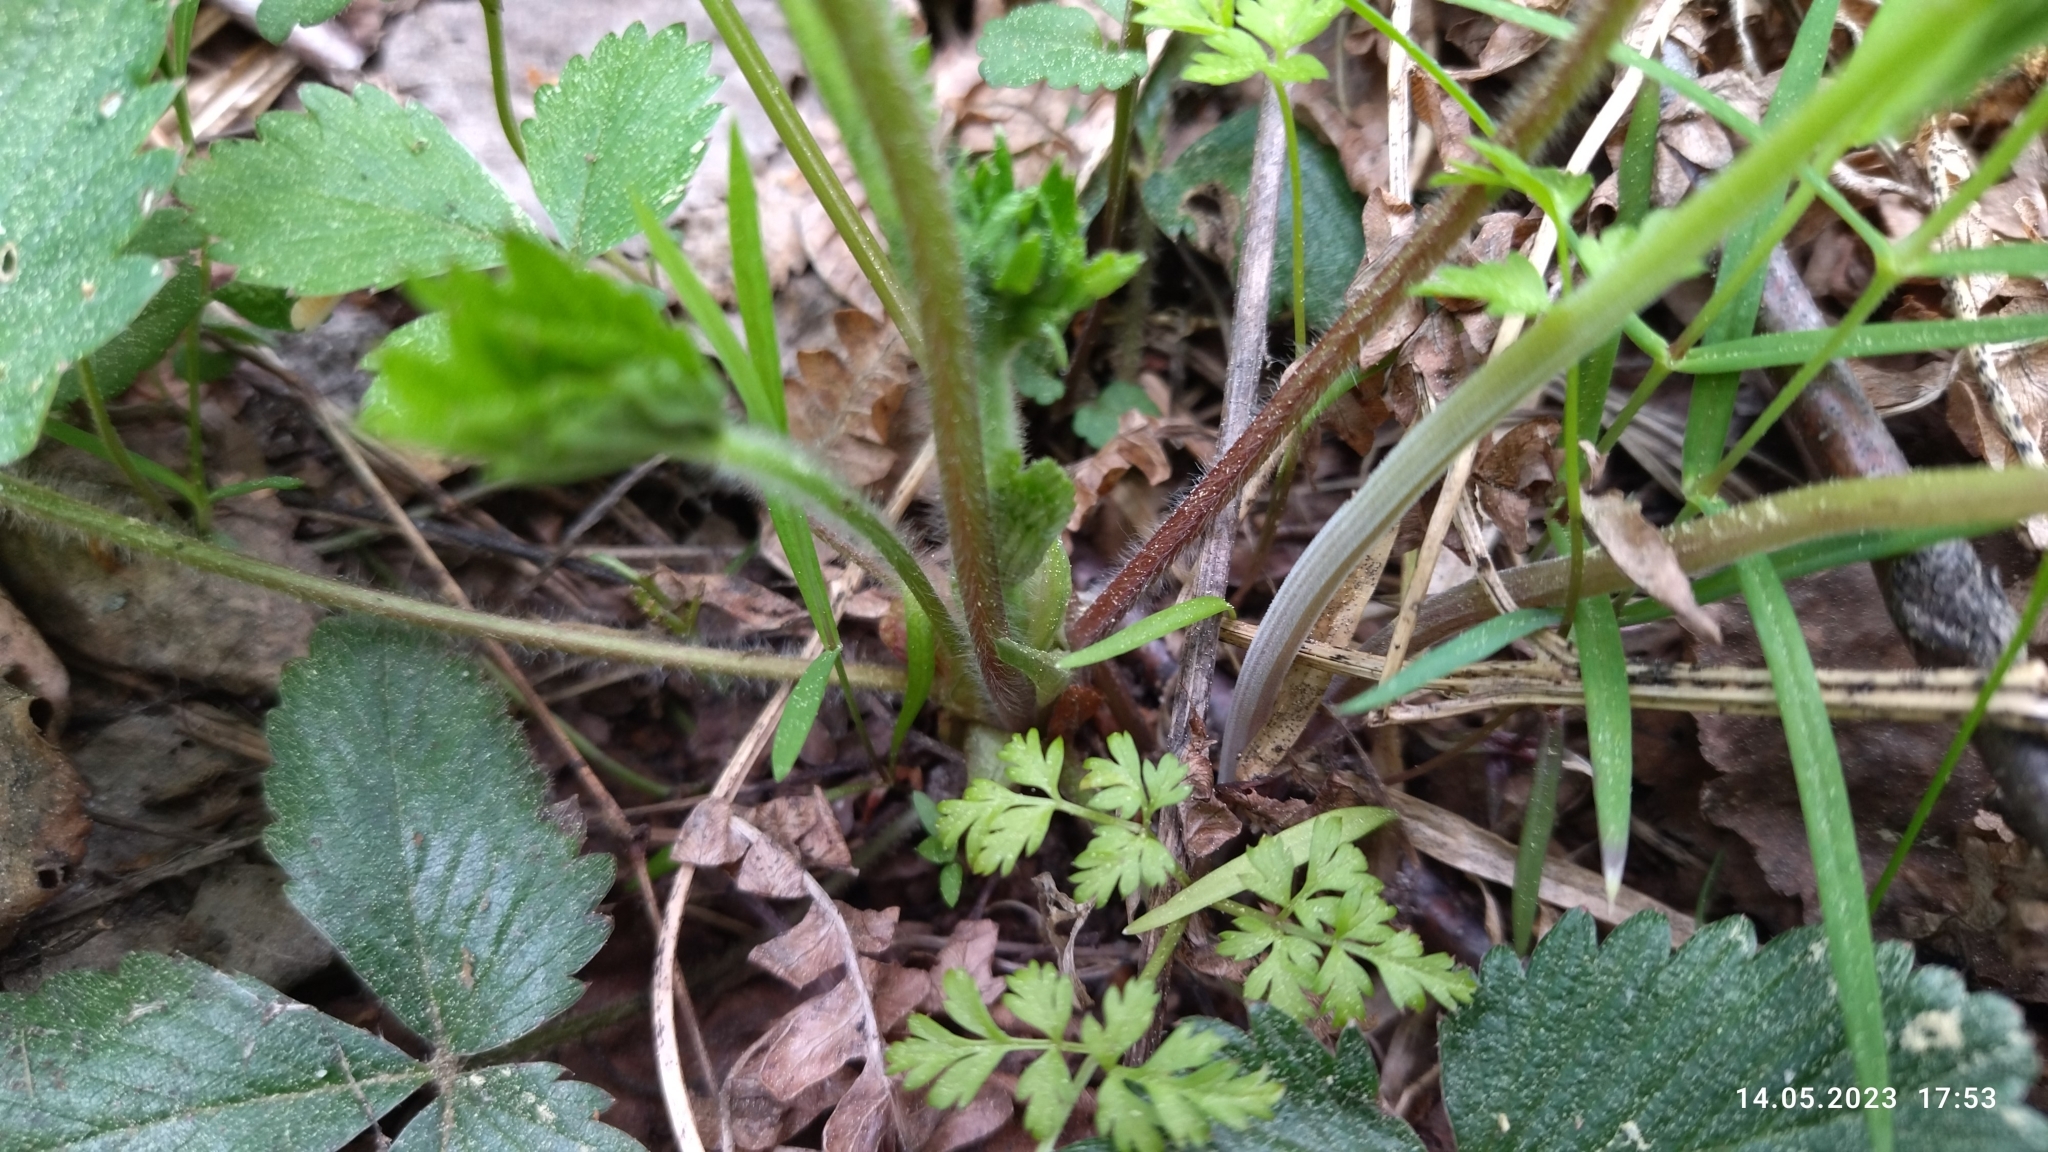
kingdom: Plantae
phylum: Tracheophyta
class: Magnoliopsida
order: Rosales
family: Rosaceae
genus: Fragaria
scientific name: Fragaria vesca
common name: Wild strawberry
